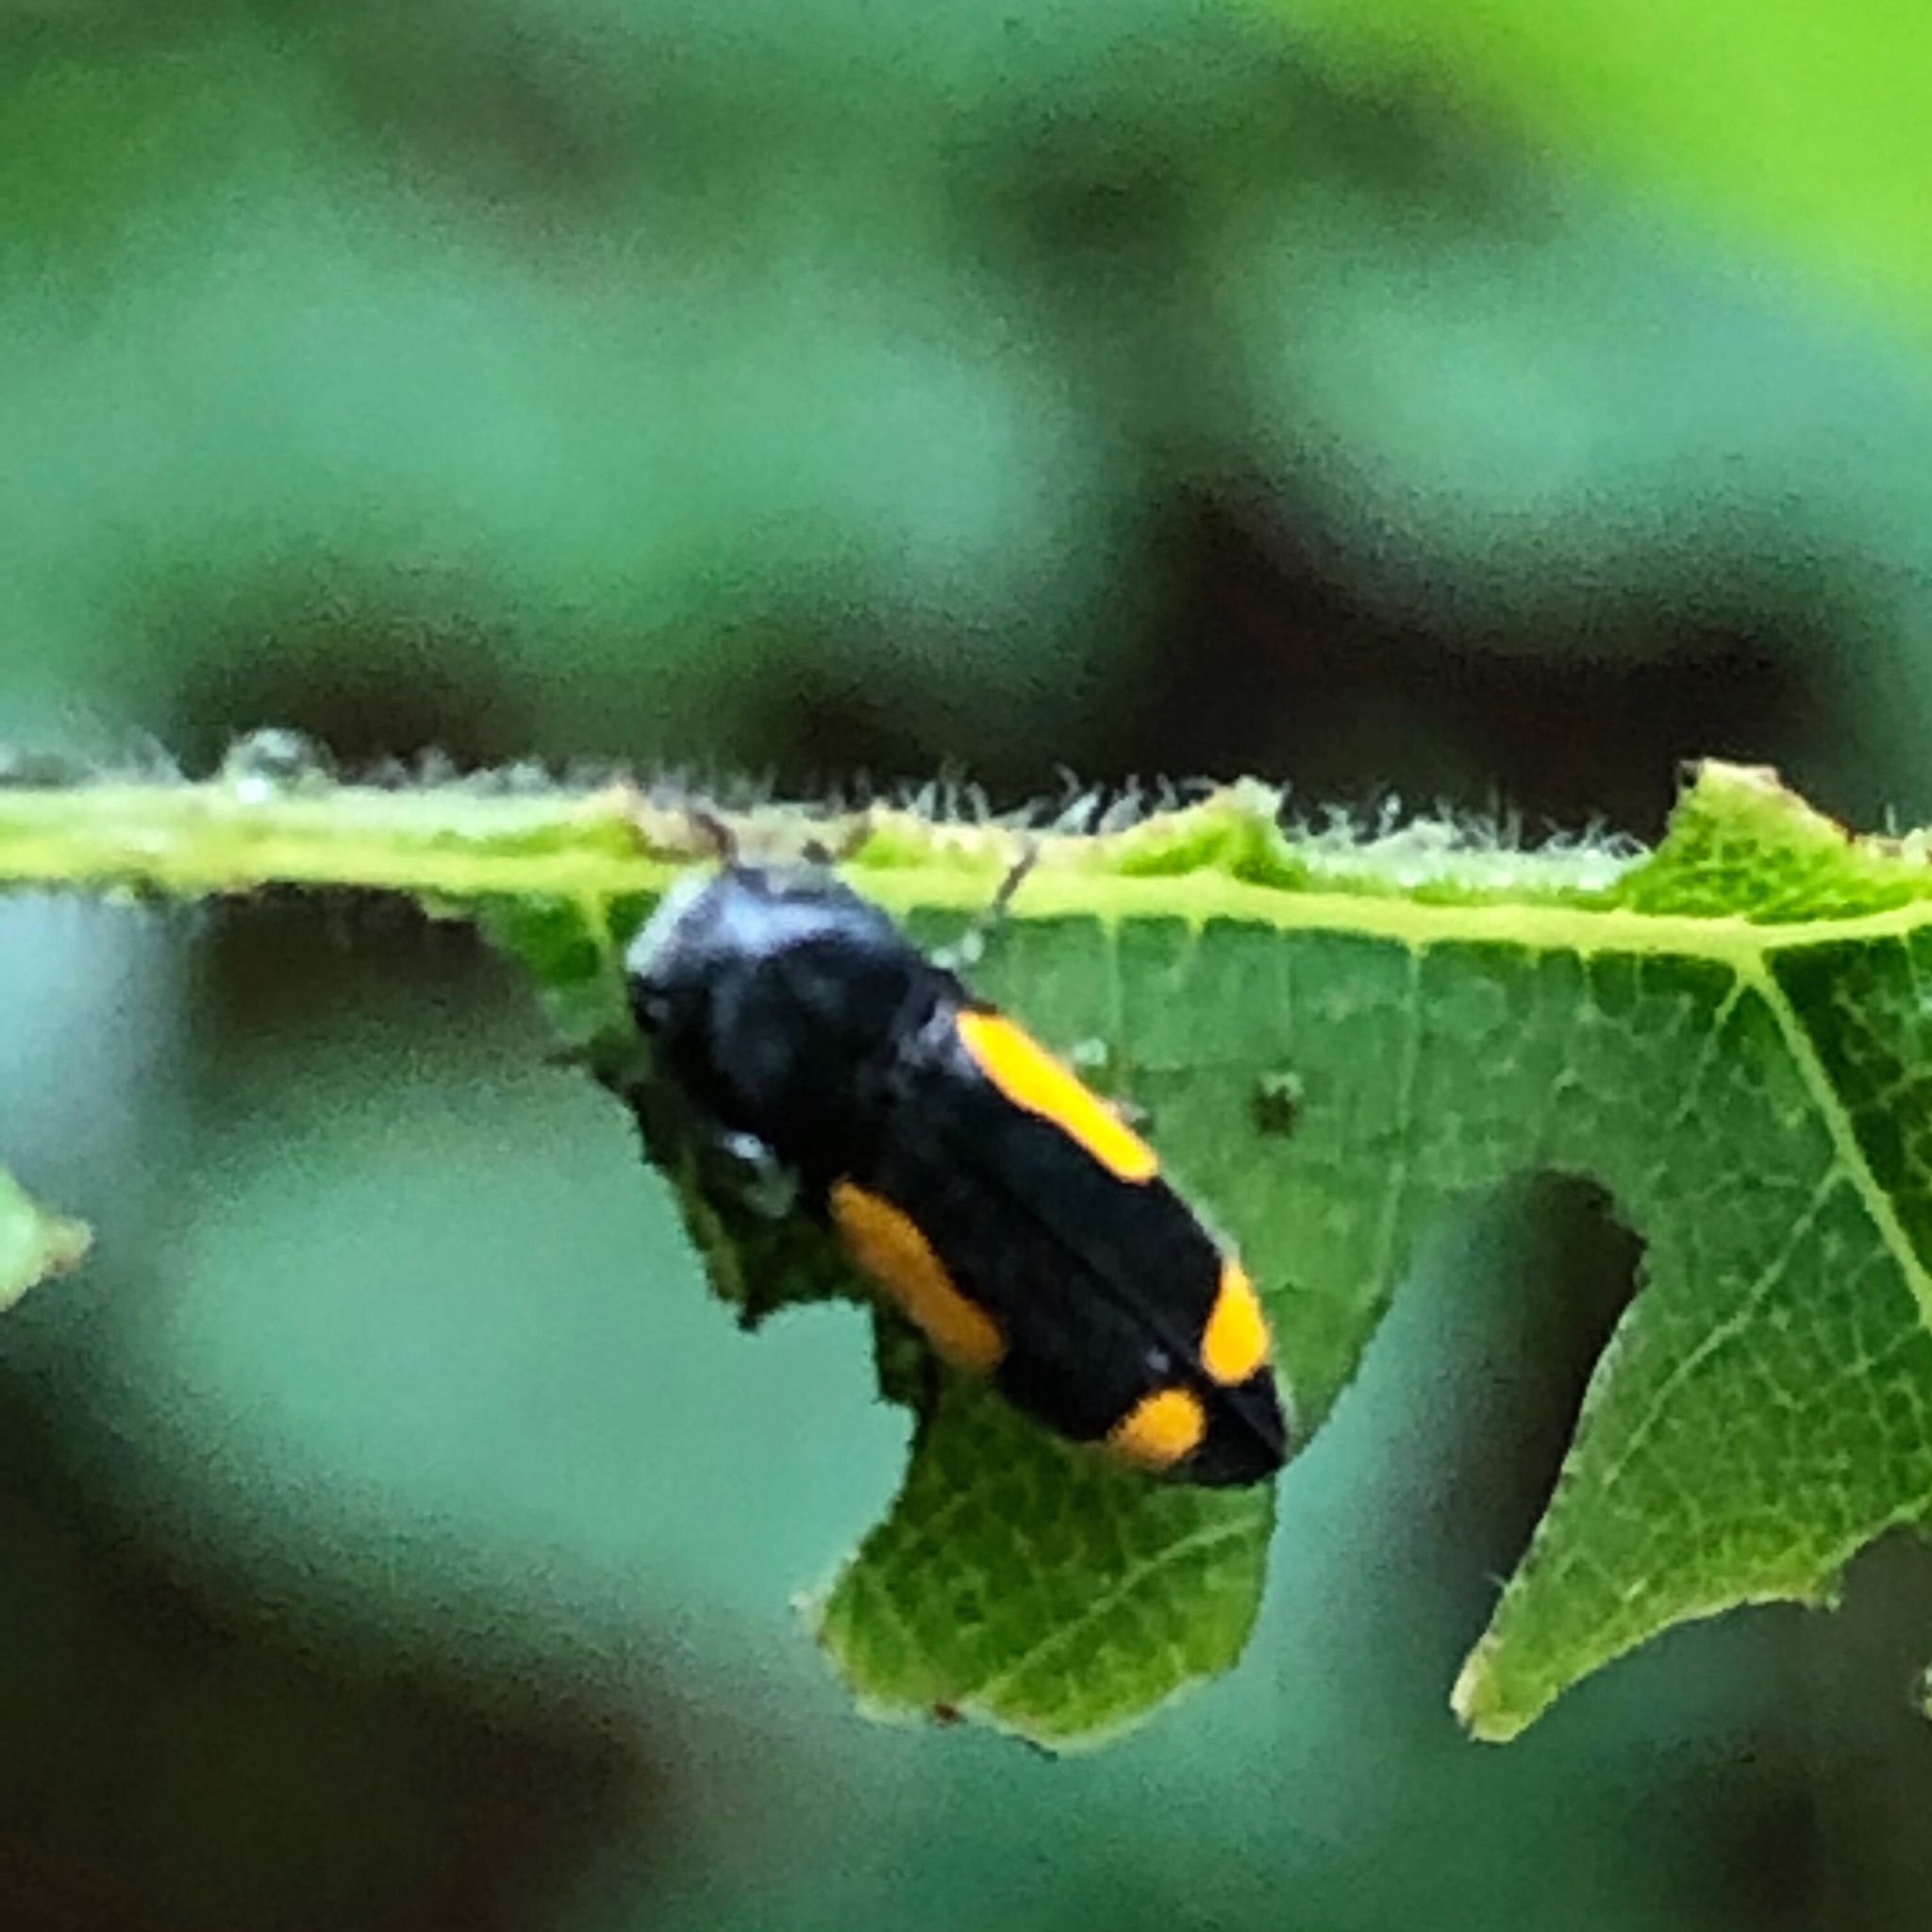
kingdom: Animalia
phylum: Arthropoda
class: Insecta
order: Coleoptera
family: Buprestidae
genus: Ptosima
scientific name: Ptosima gibbicollis
